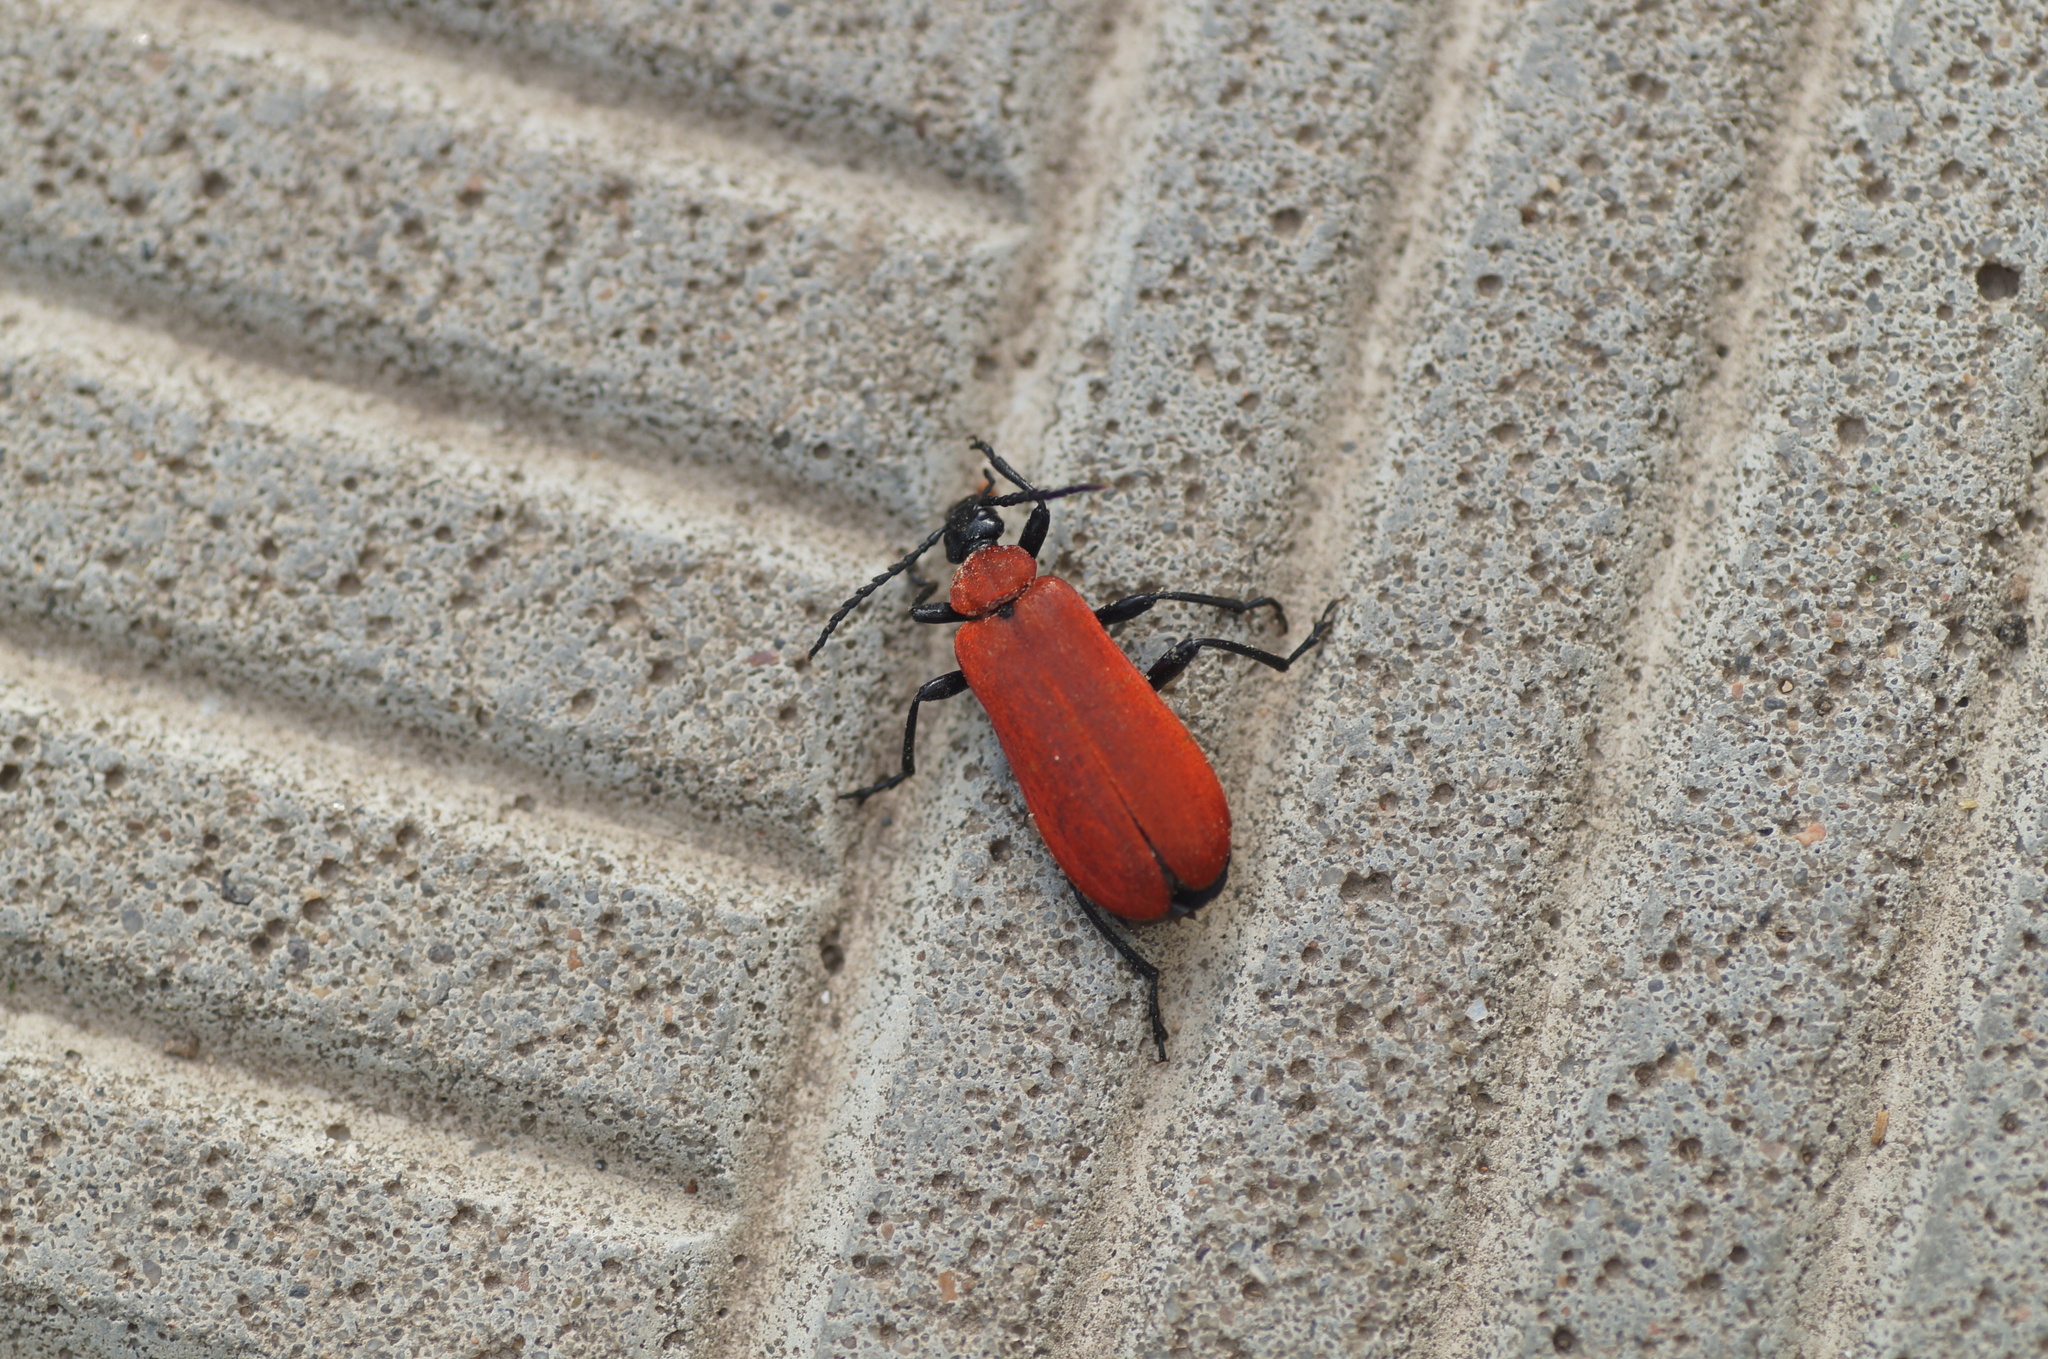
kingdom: Animalia
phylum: Arthropoda
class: Insecta
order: Coleoptera
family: Pyrochroidae
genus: Pyrochroa
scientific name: Pyrochroa coccinea
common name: Black-headed cardinal beetle
